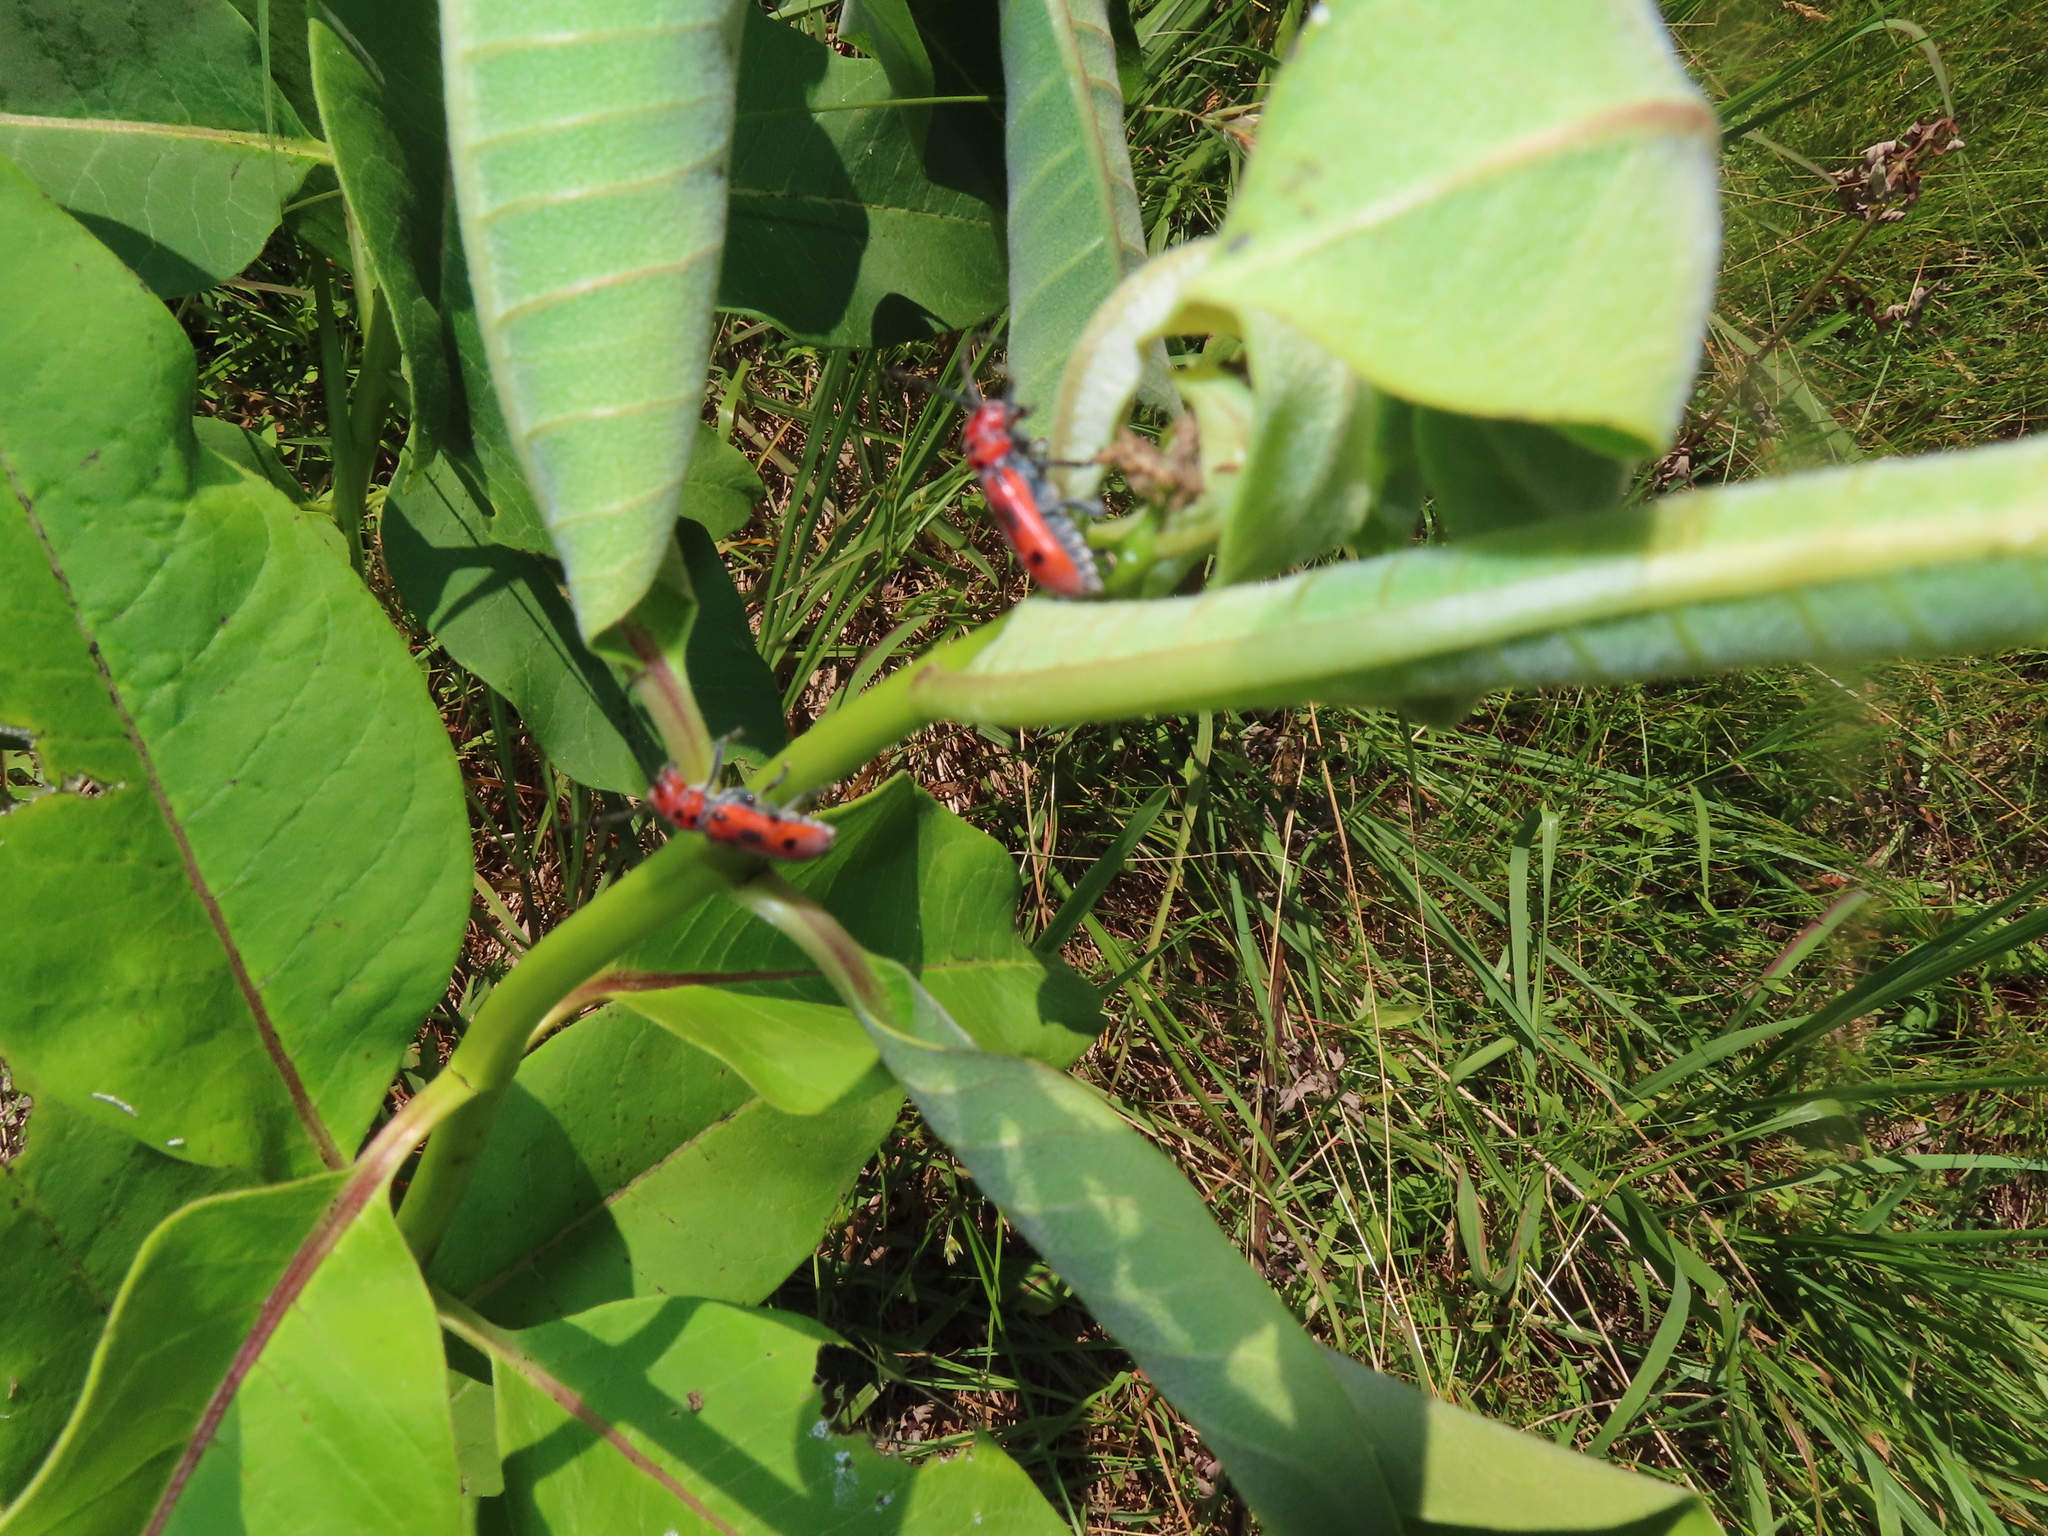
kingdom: Animalia
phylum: Arthropoda
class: Insecta
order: Coleoptera
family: Cerambycidae
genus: Tetraopes
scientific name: Tetraopes tetrophthalmus
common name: Red milkweed beetle
